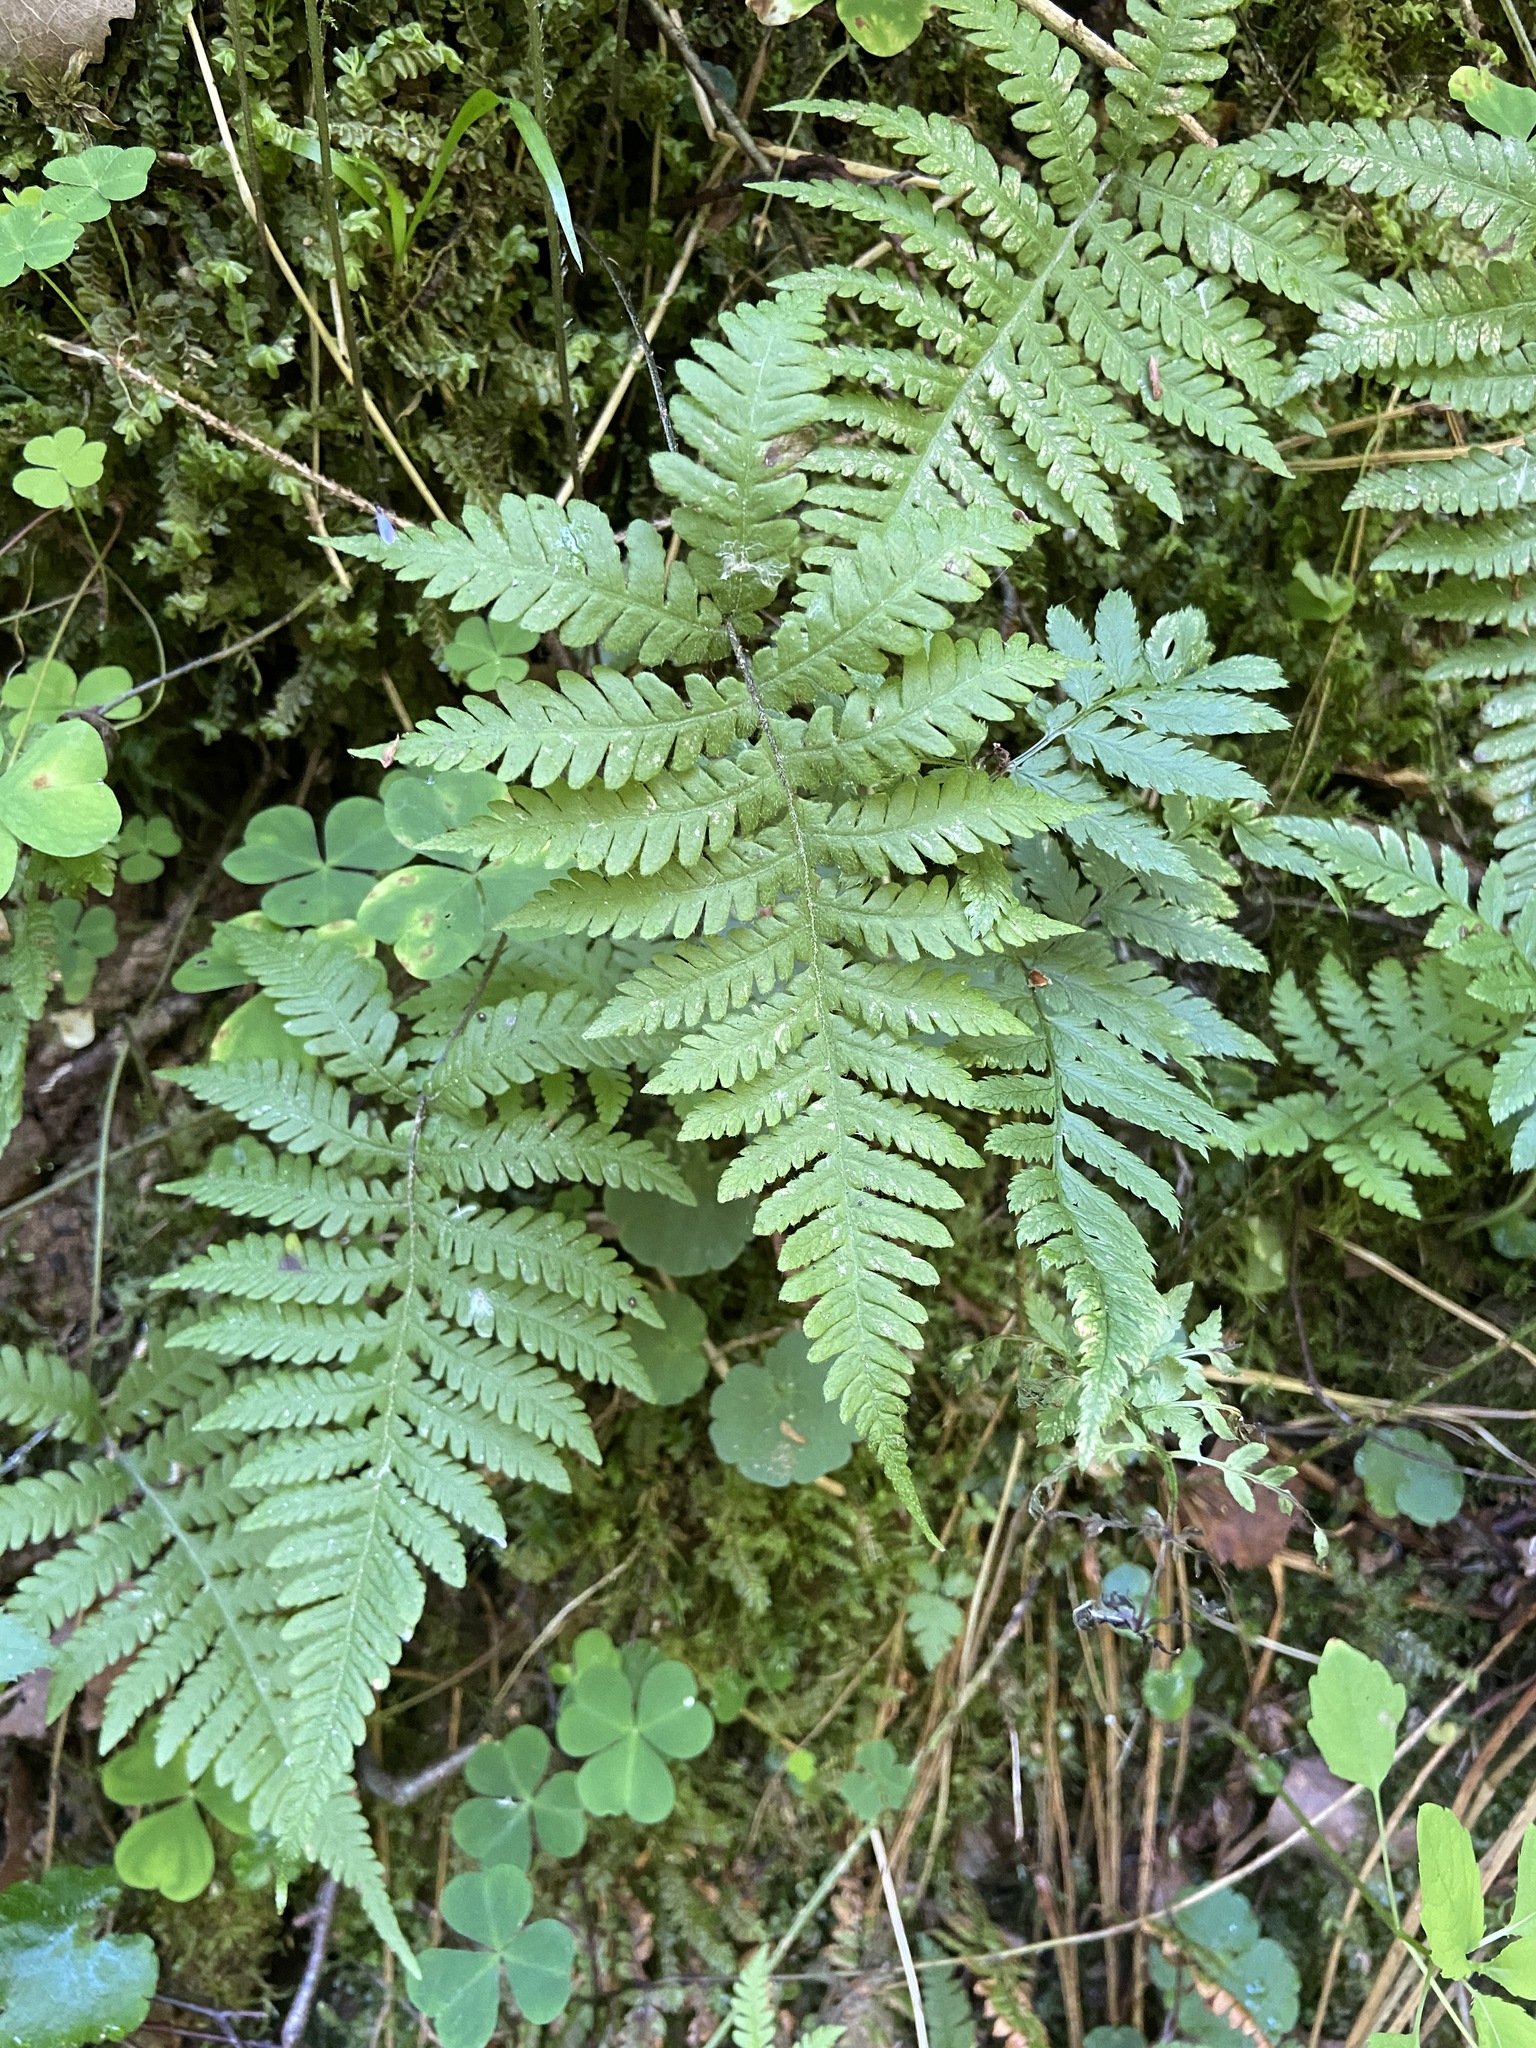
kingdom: Plantae
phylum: Tracheophyta
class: Polypodiopsida
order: Polypodiales
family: Thelypteridaceae
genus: Phegopteris
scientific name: Phegopteris connectilis
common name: Beech fern
